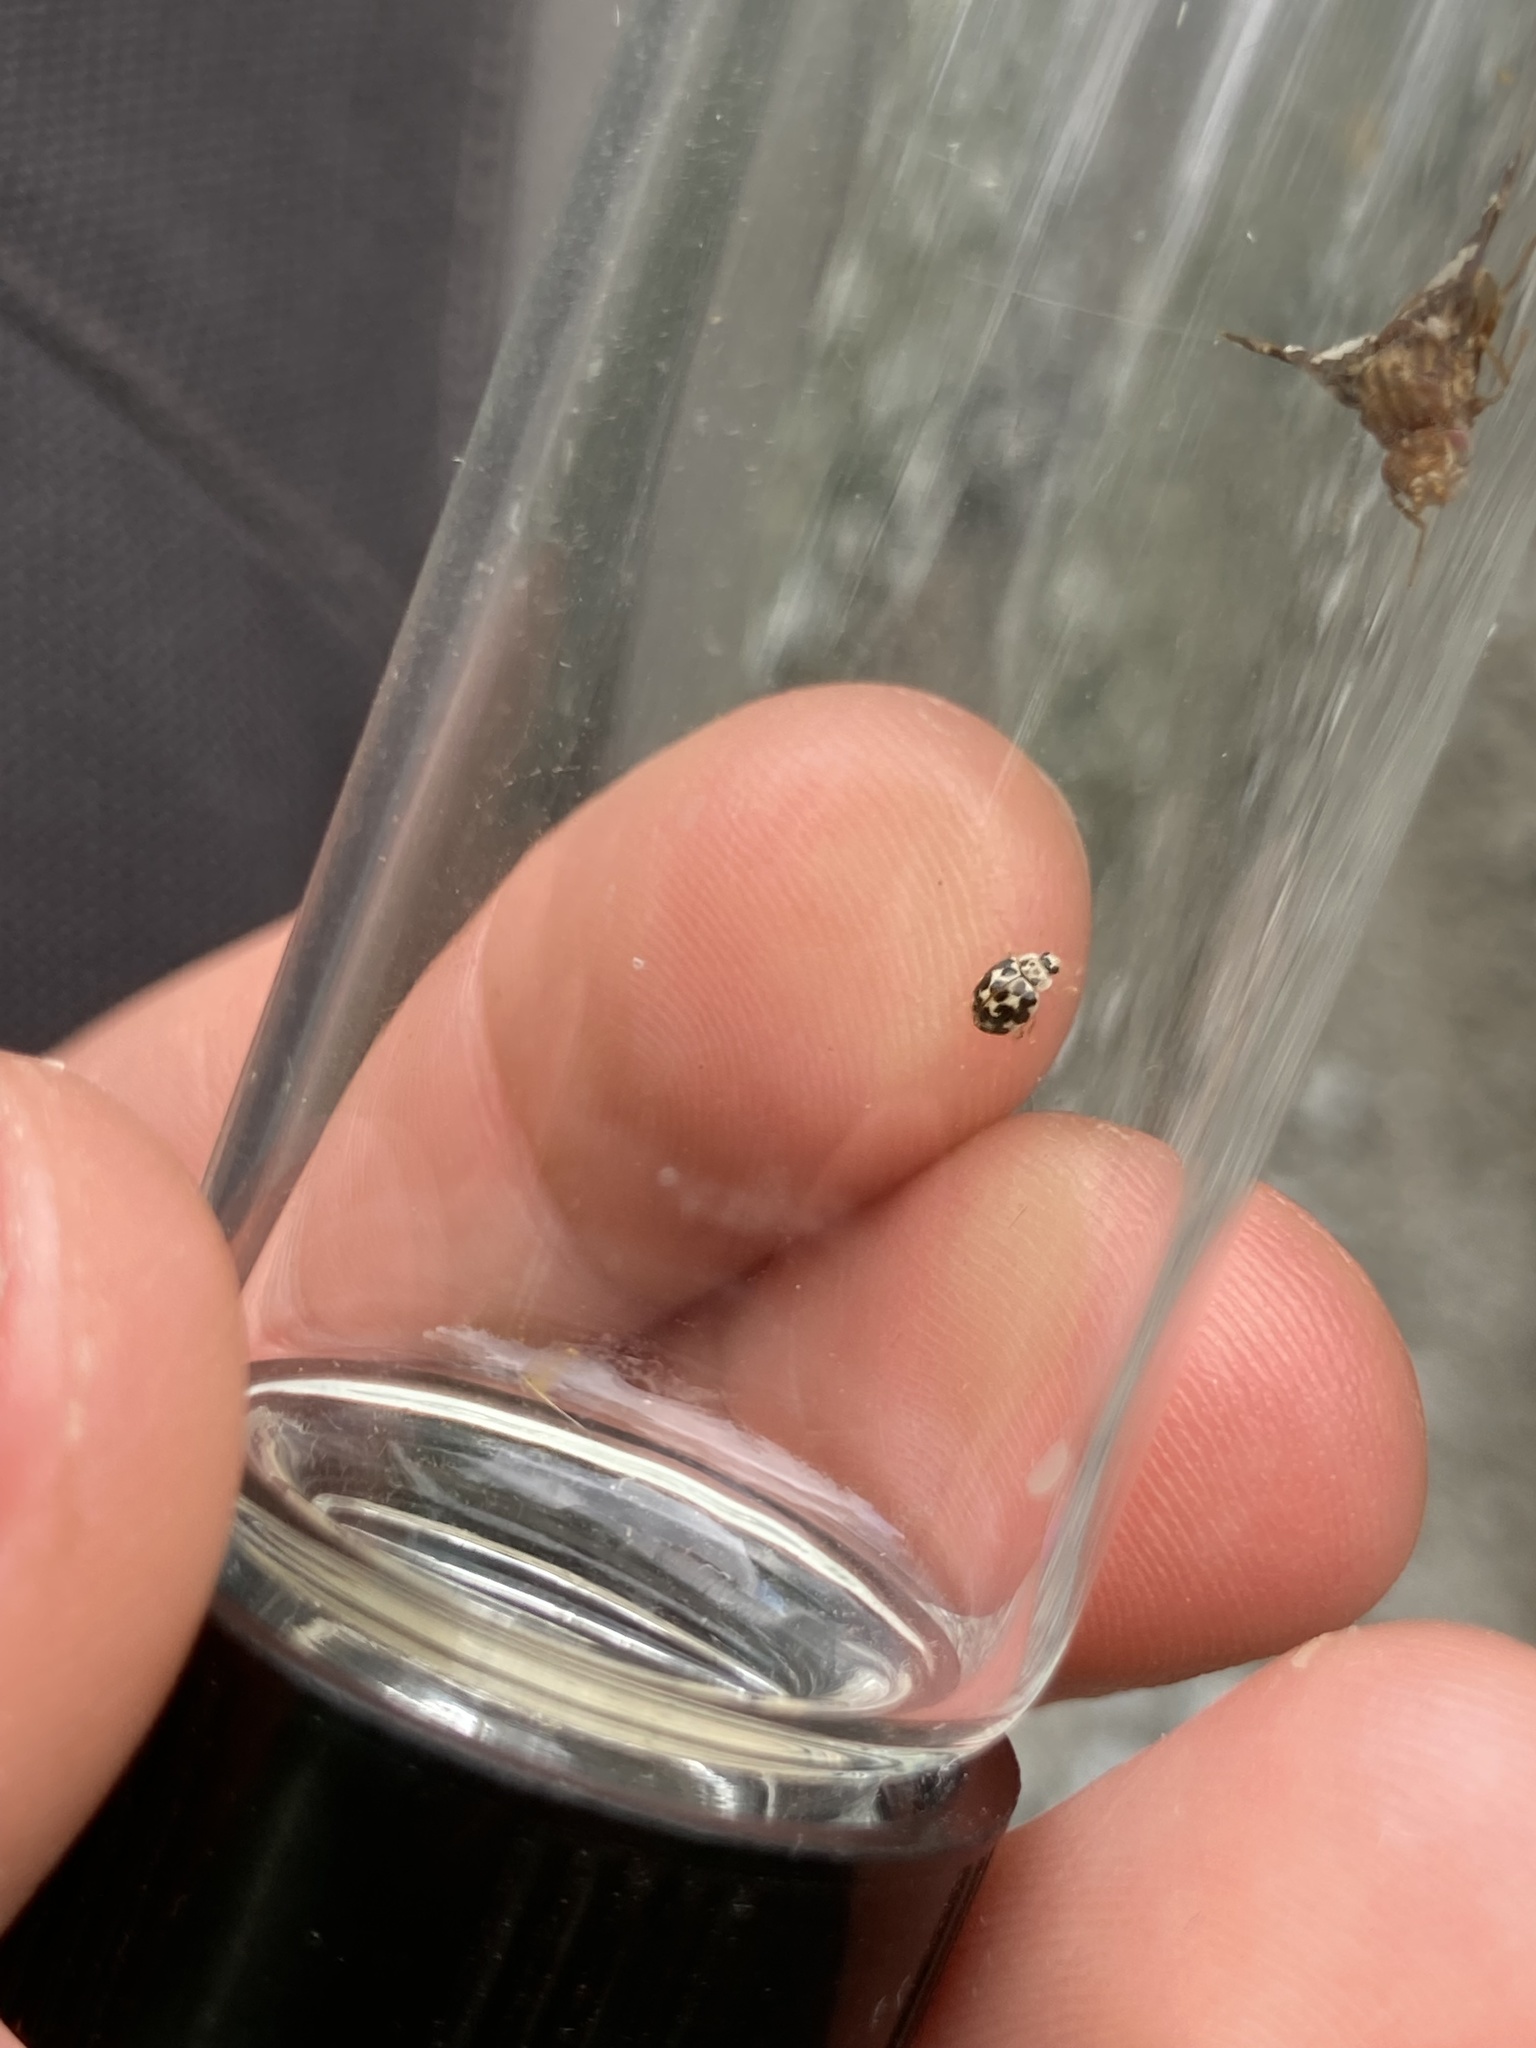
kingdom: Animalia
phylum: Arthropoda
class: Insecta
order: Coleoptera
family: Coccinellidae
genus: Psyllobora
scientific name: Psyllobora vigintimaculata
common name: Ladybird beetle
